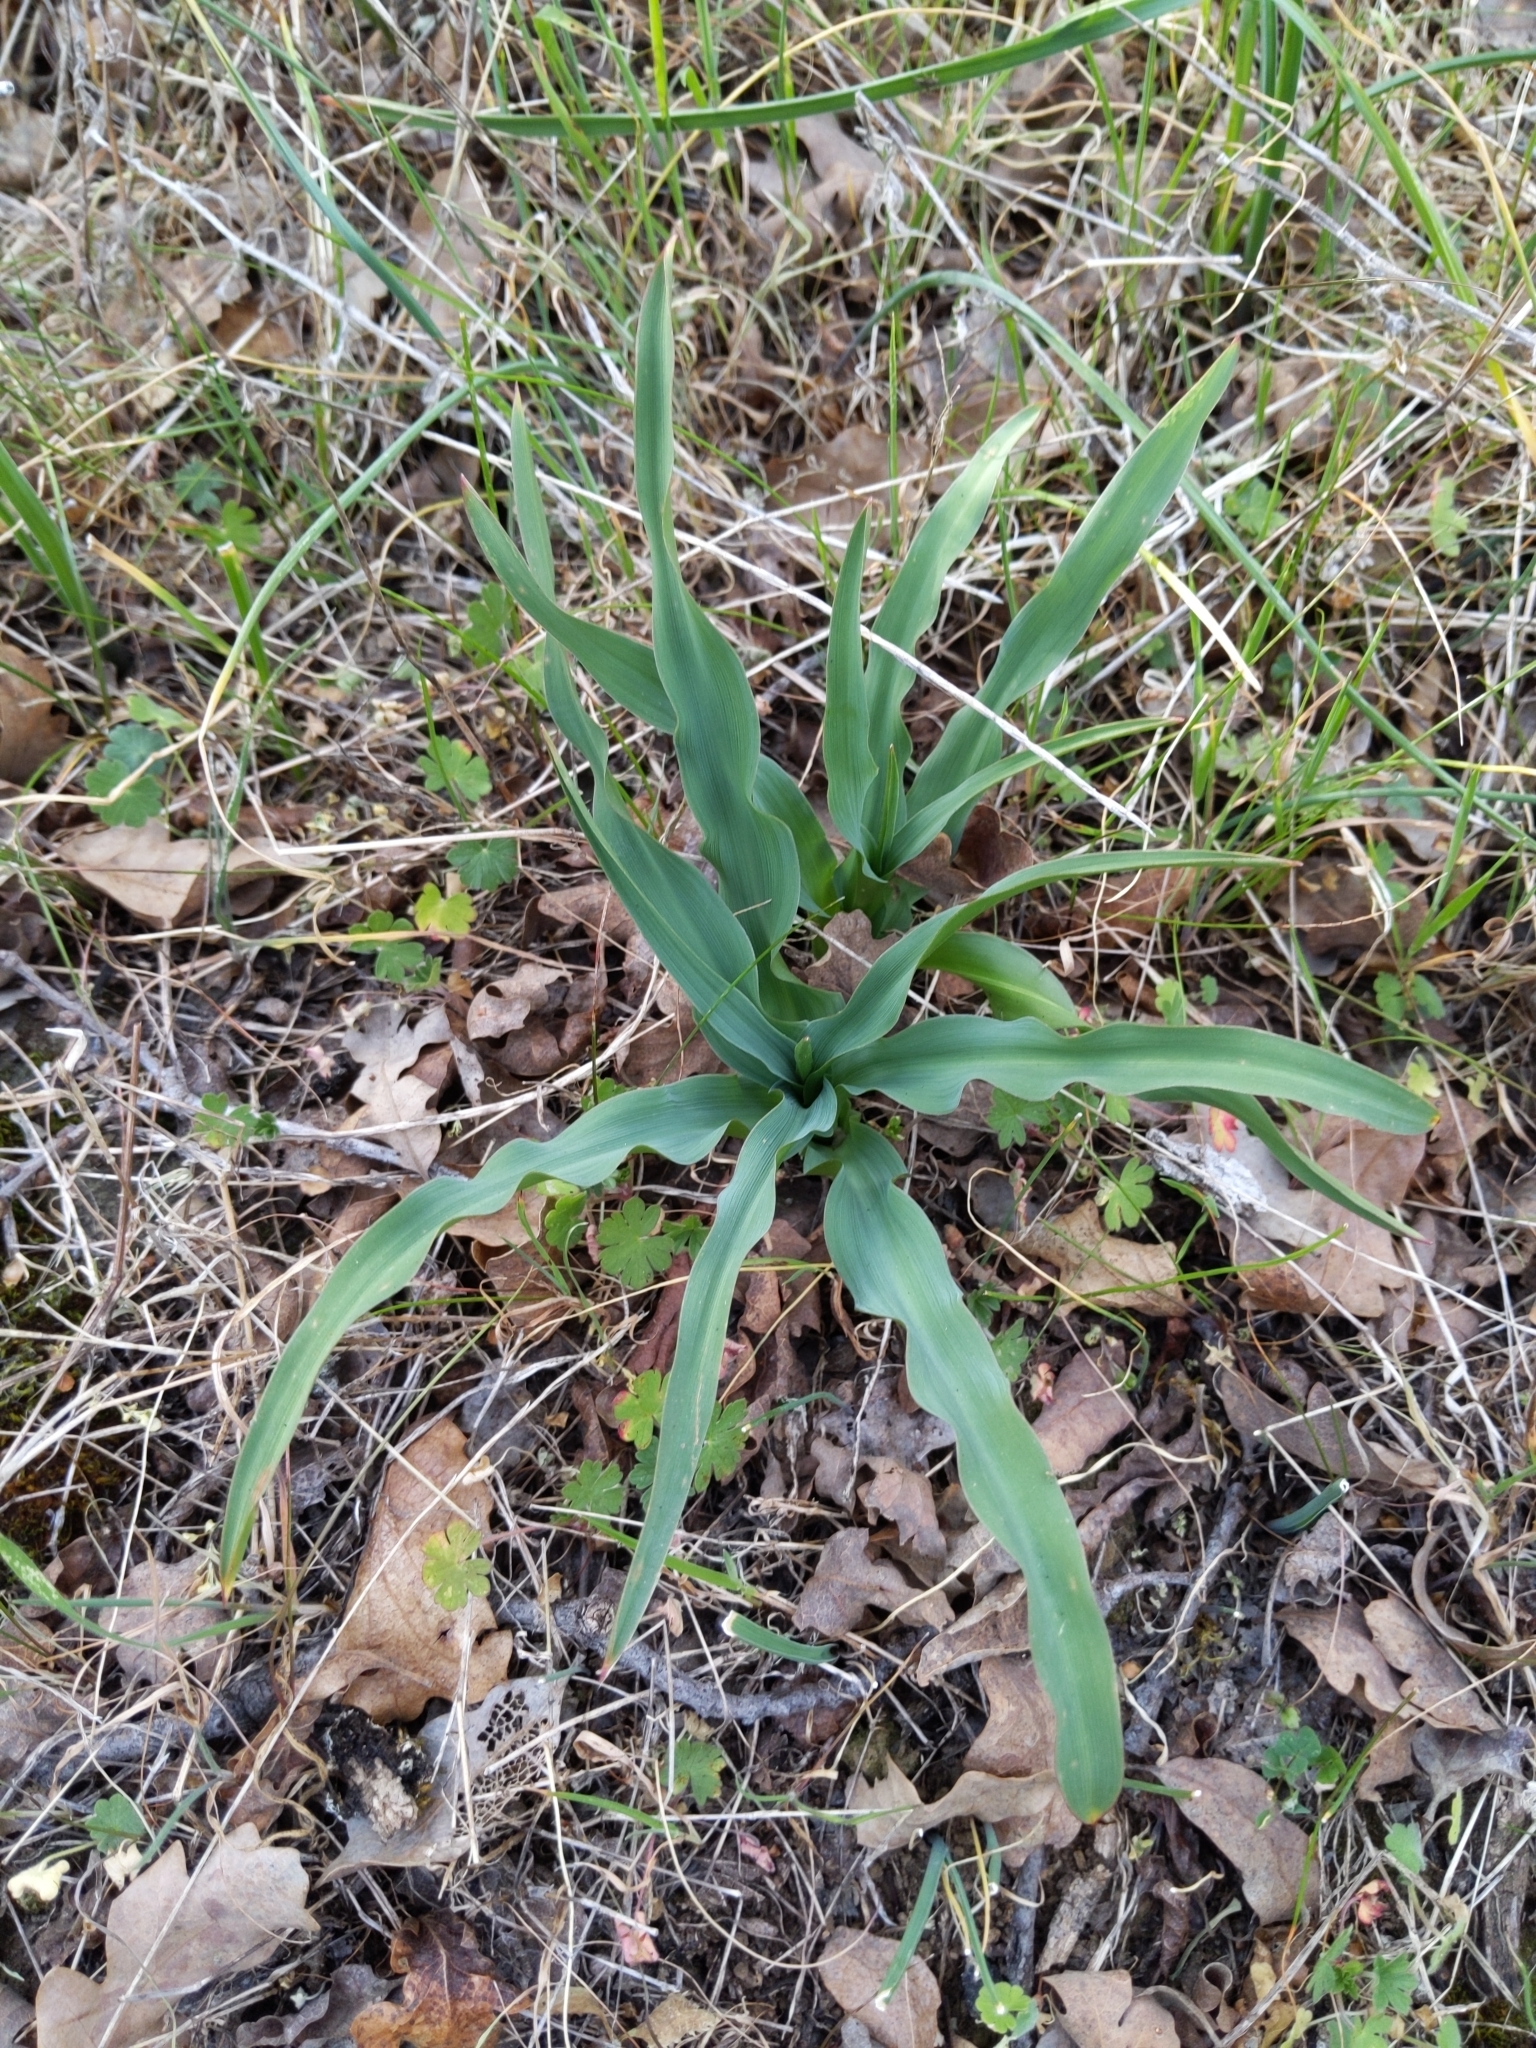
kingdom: Plantae
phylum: Tracheophyta
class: Liliopsida
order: Asparagales
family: Asparagaceae
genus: Chlorogalum
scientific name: Chlorogalum pomeridianum
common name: Amole
